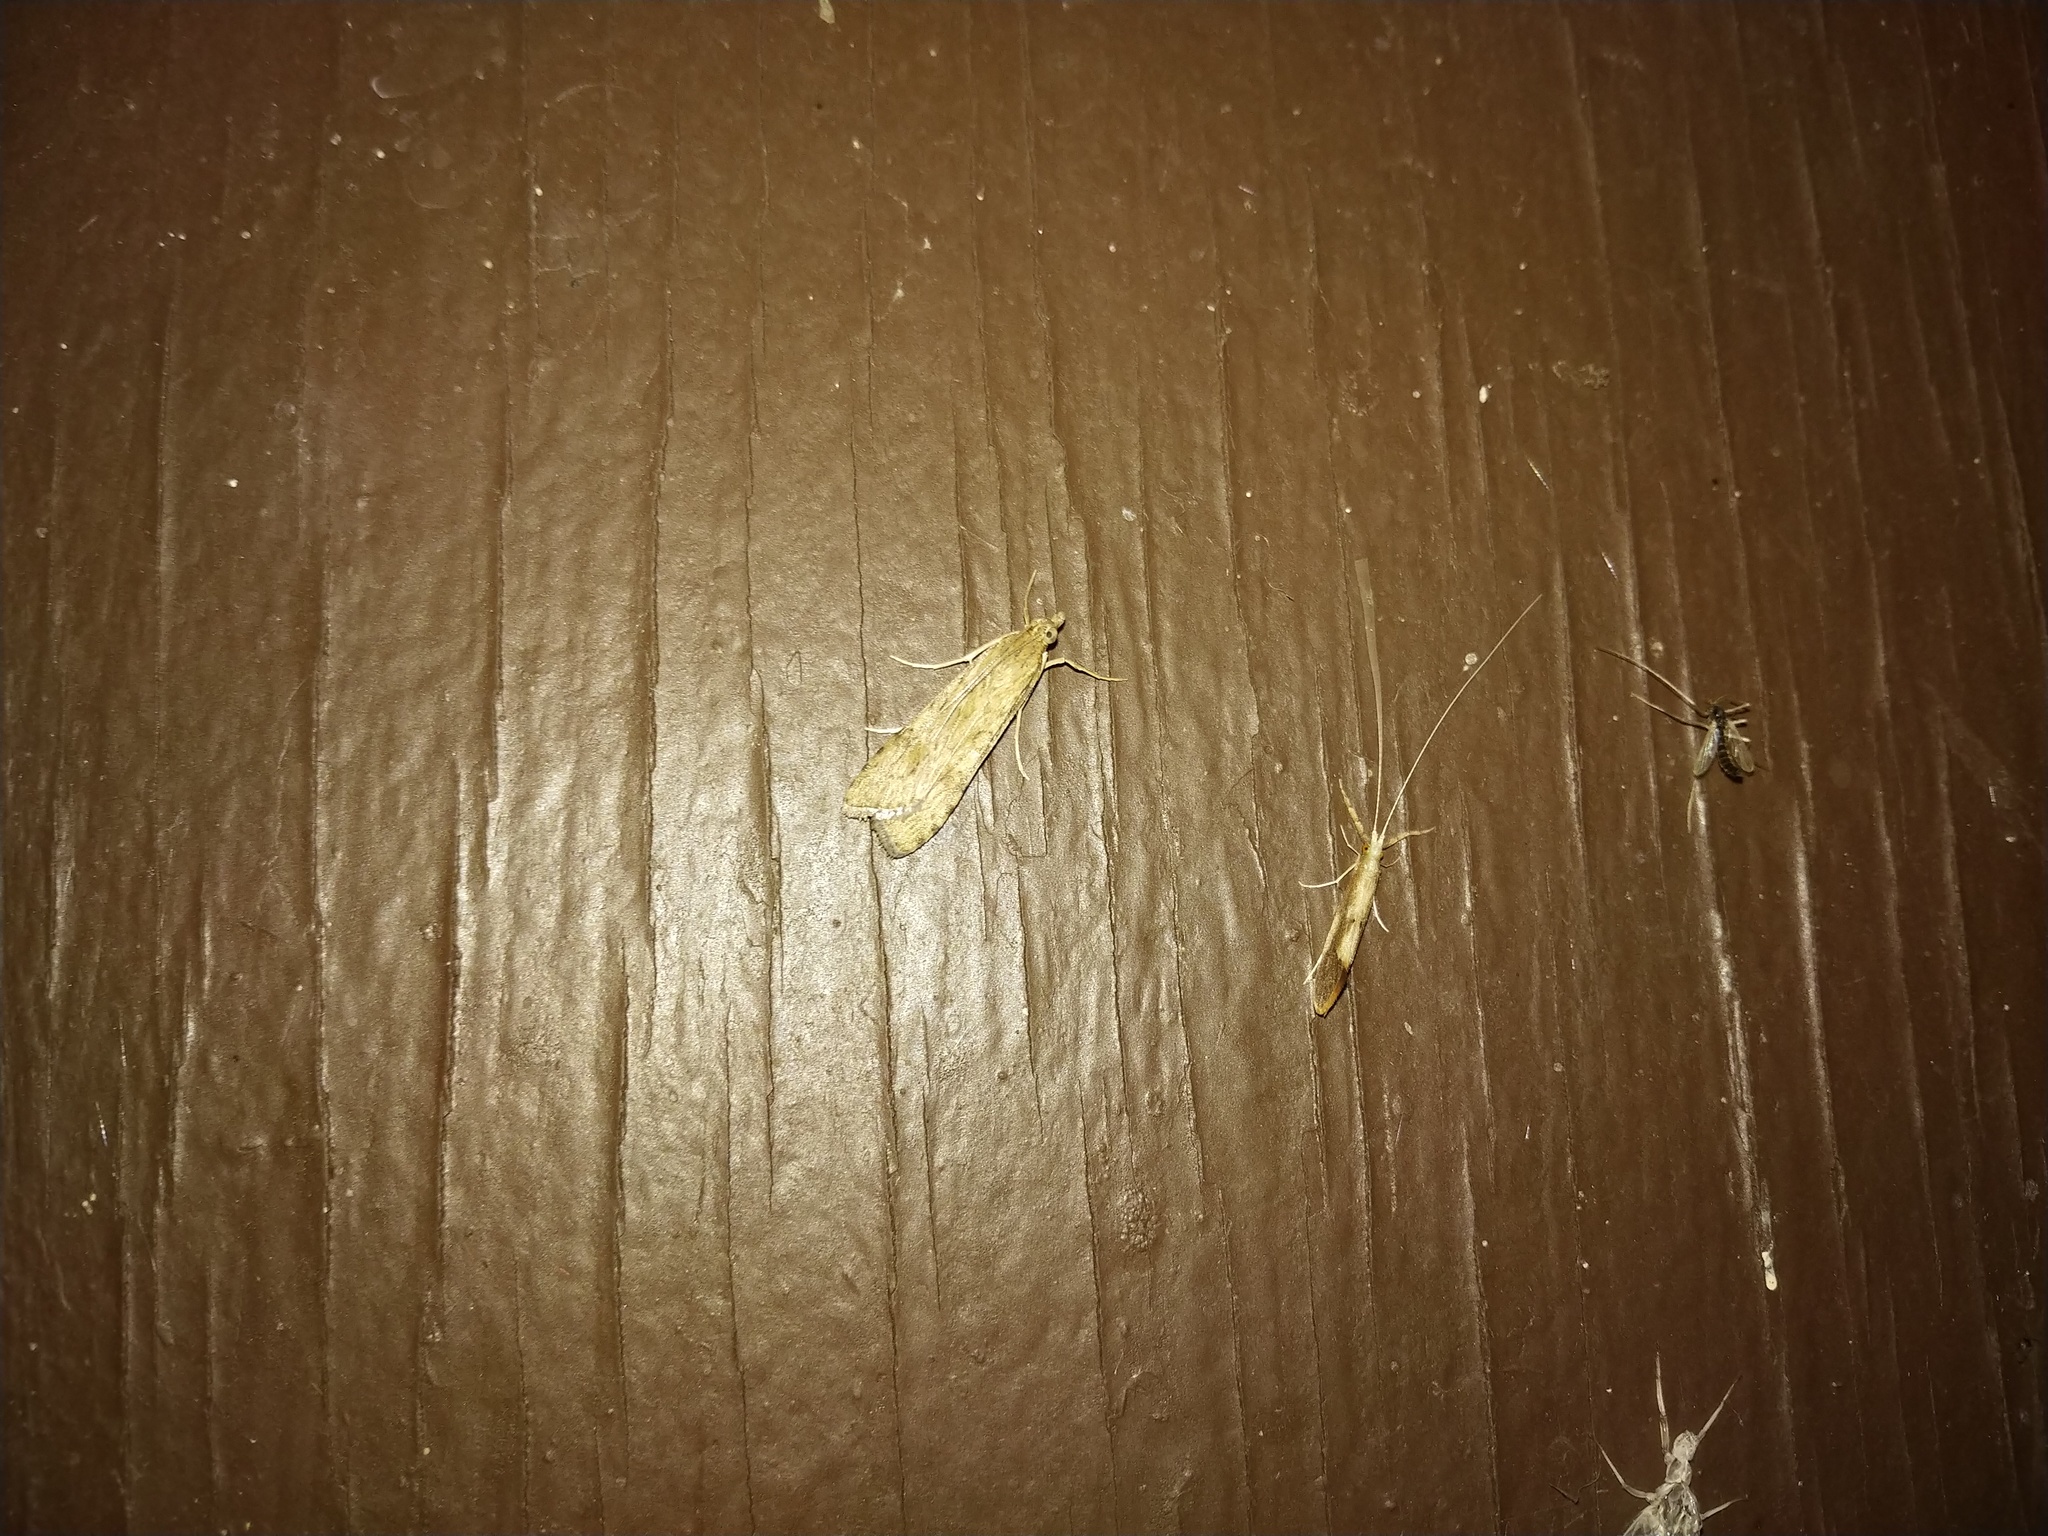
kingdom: Animalia
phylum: Arthropoda
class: Insecta
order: Lepidoptera
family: Crambidae
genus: Nomophila
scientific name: Nomophila nearctica
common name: American rush veneer
